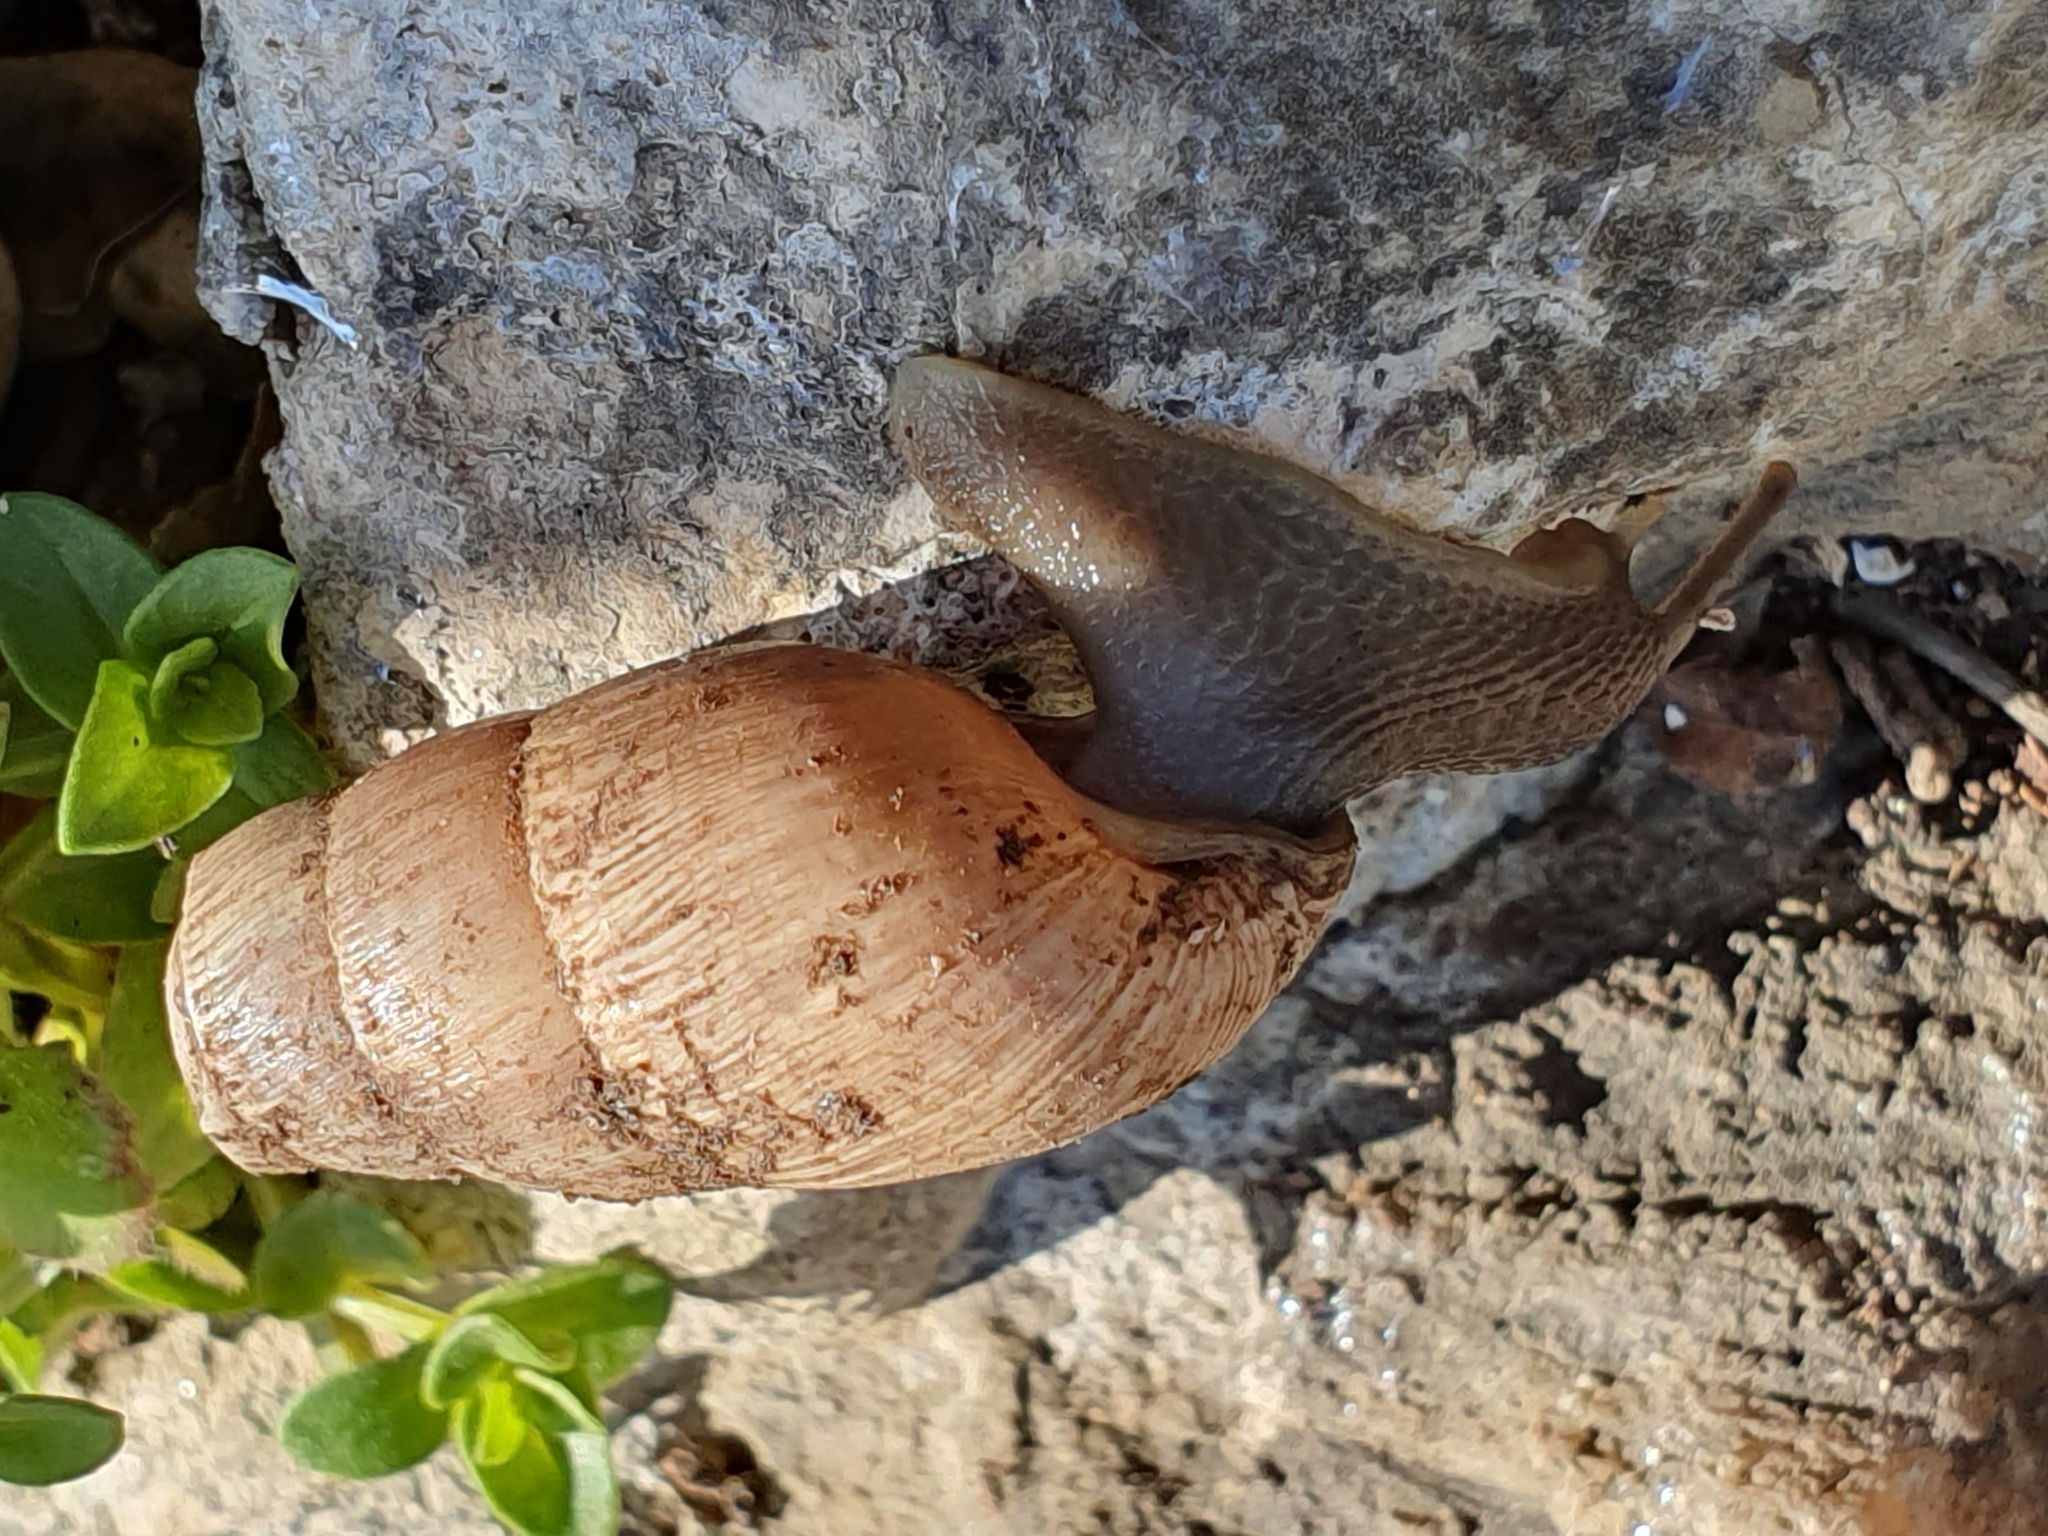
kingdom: Animalia
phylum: Mollusca
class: Gastropoda
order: Stylommatophora
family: Achatinidae
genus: Rumina
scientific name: Rumina decollata
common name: Decollate snail
